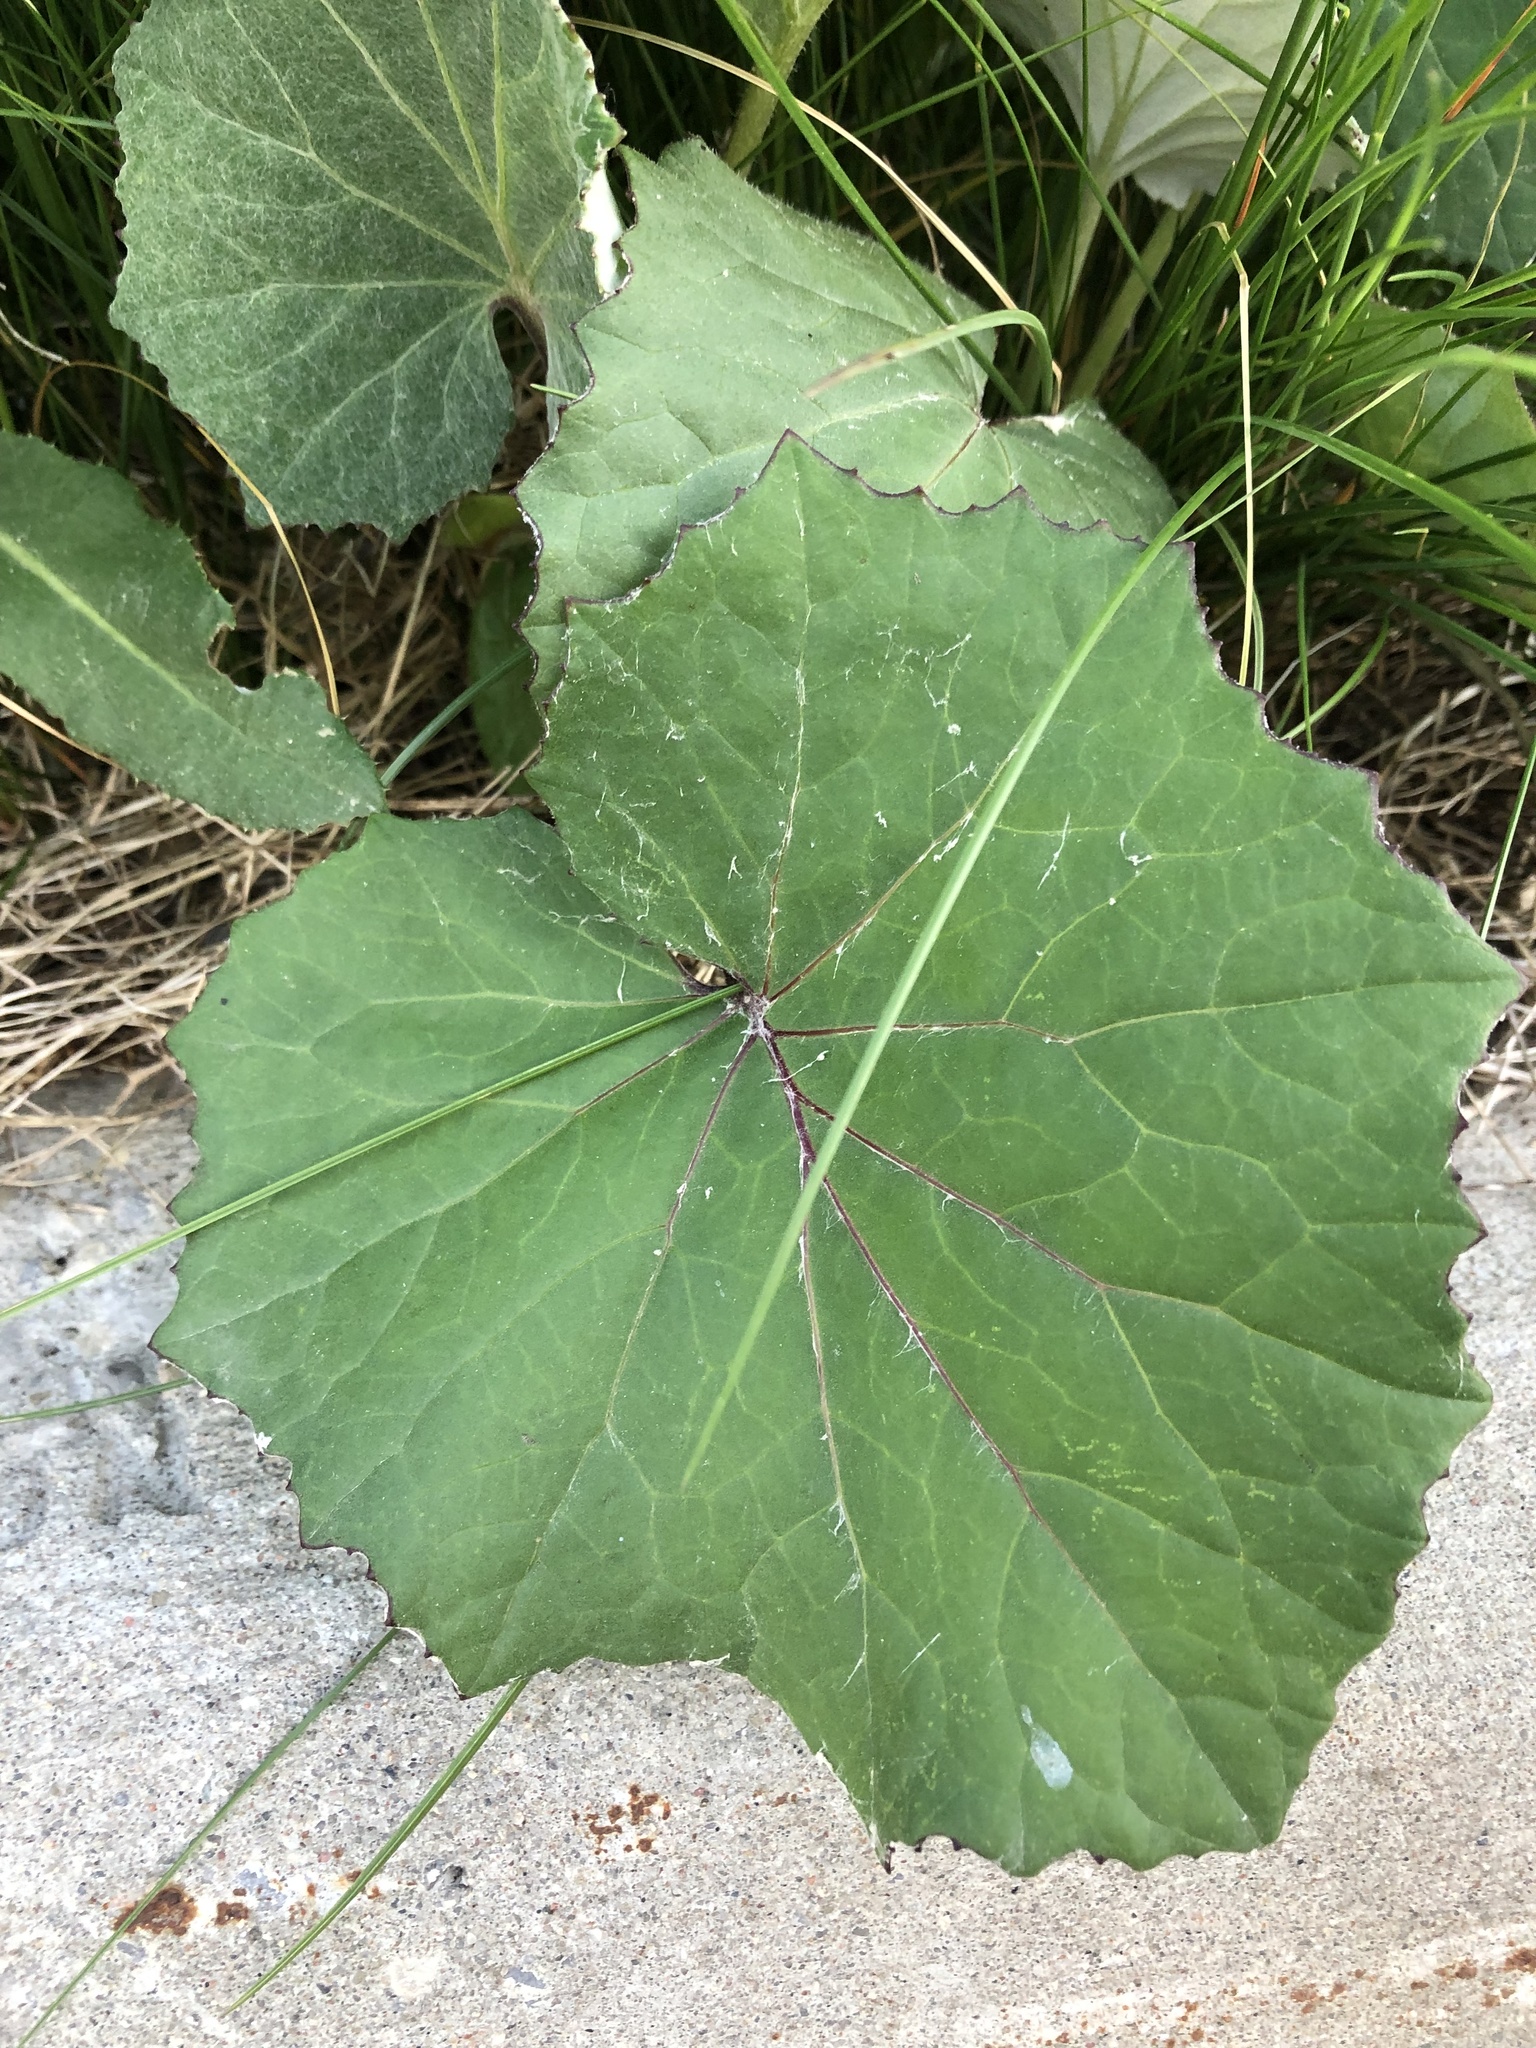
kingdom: Plantae
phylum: Tracheophyta
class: Magnoliopsida
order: Asterales
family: Asteraceae
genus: Tussilago
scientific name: Tussilago farfara
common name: Coltsfoot
